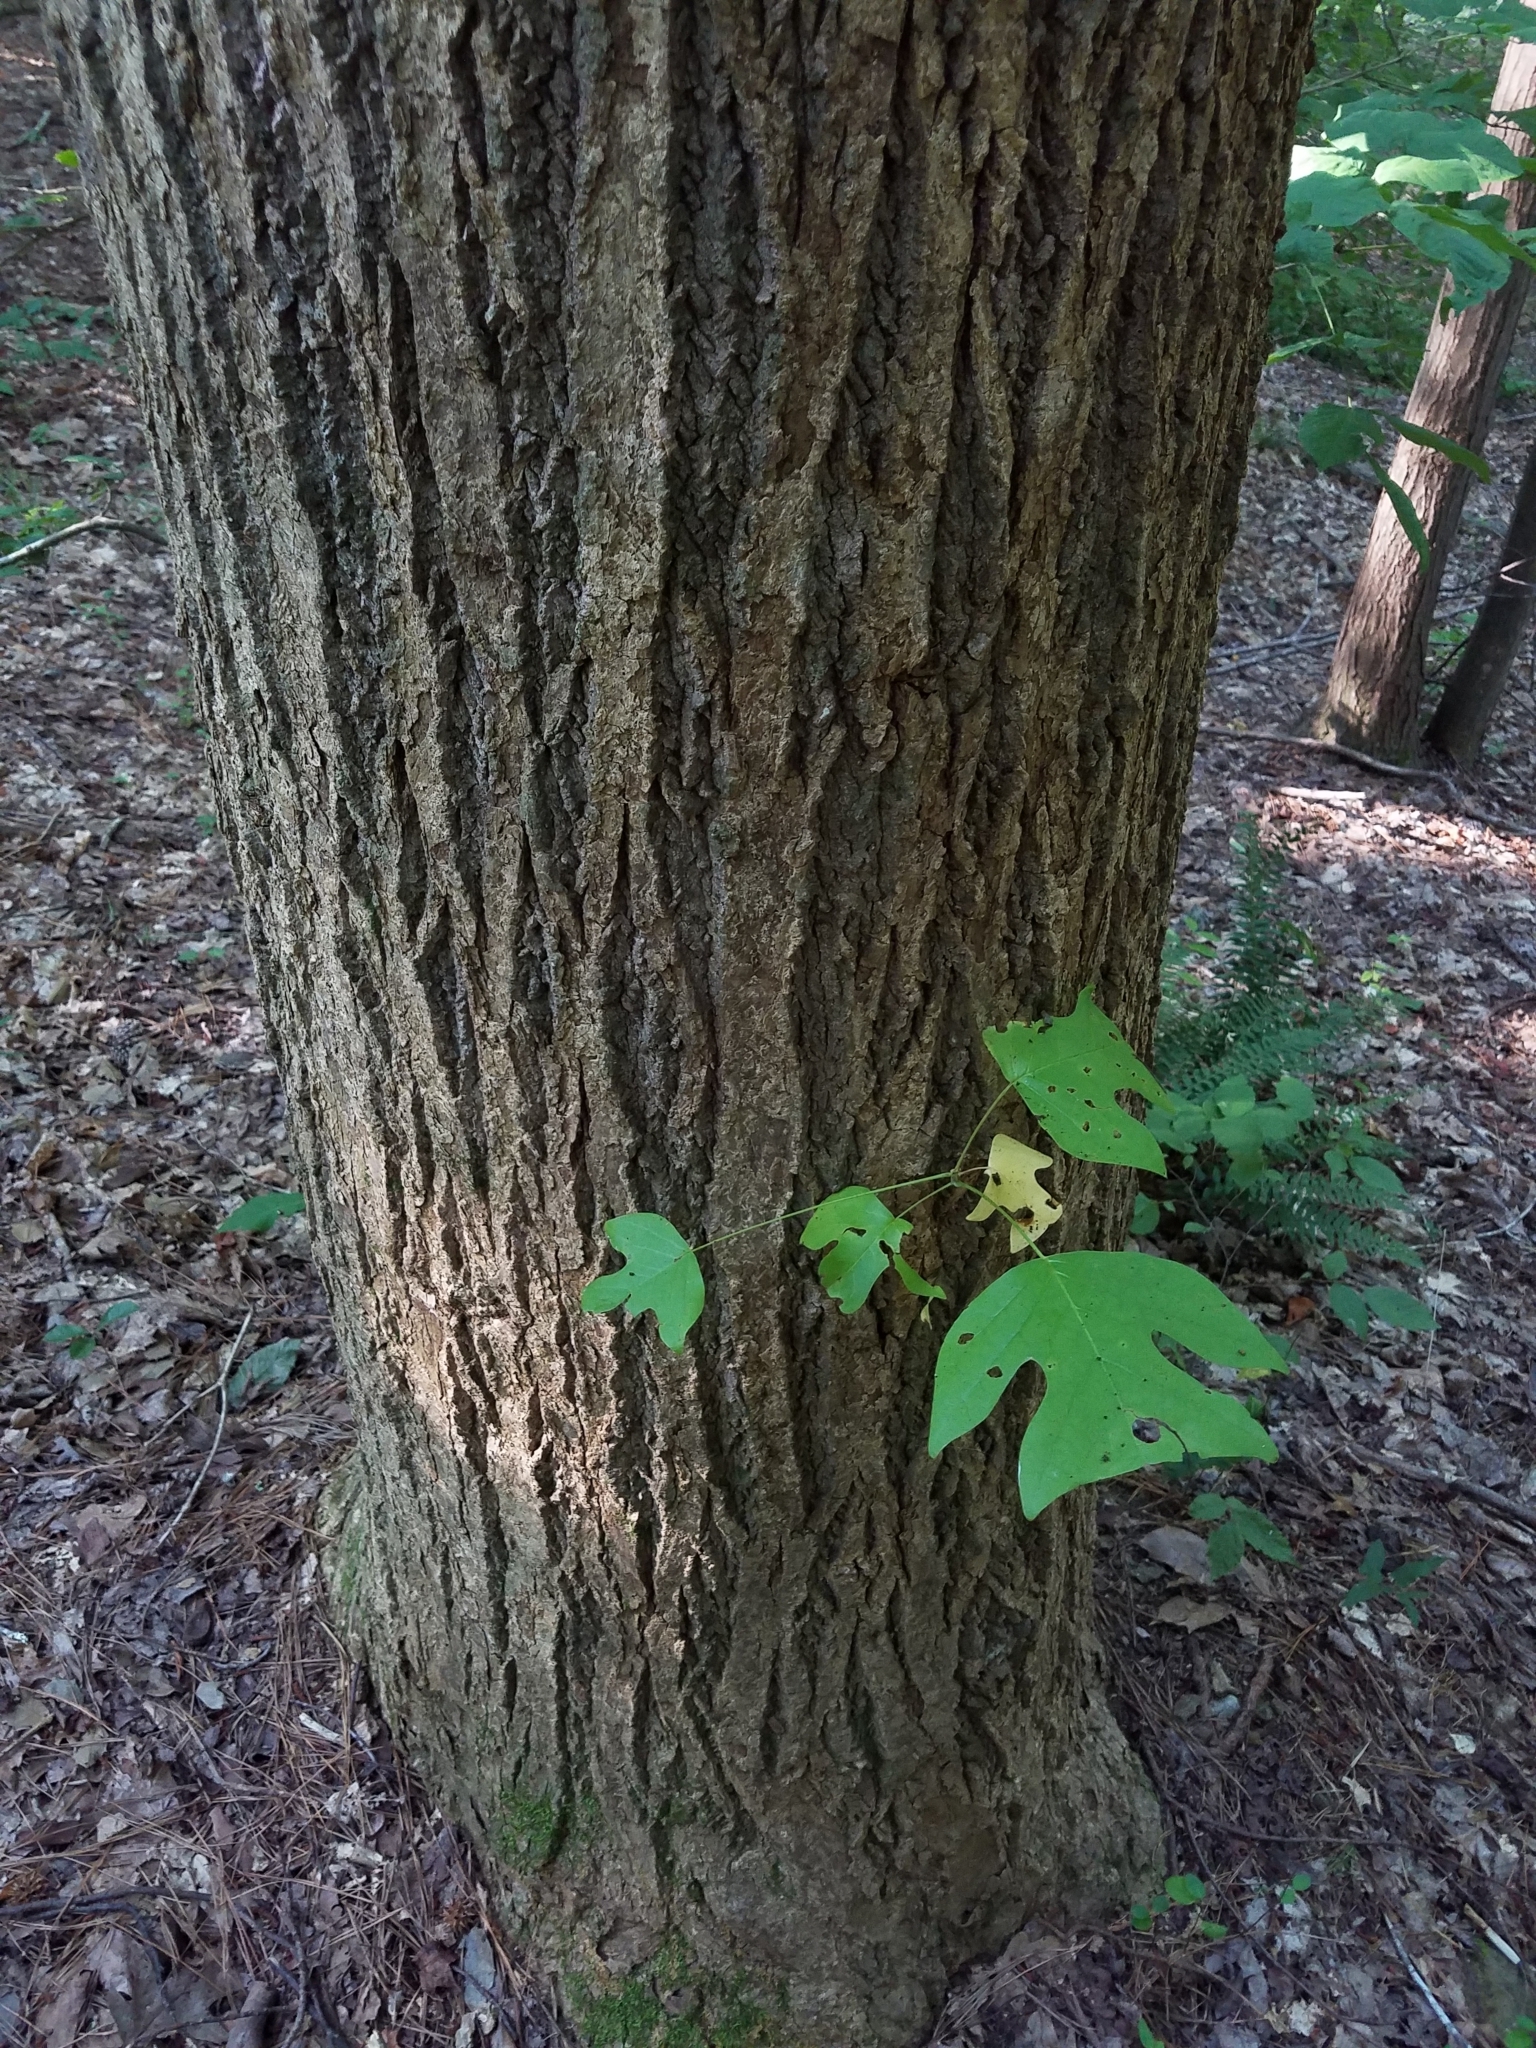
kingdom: Plantae
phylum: Tracheophyta
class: Magnoliopsida
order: Magnoliales
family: Magnoliaceae
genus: Liriodendron
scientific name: Liriodendron tulipifera
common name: Tulip tree
